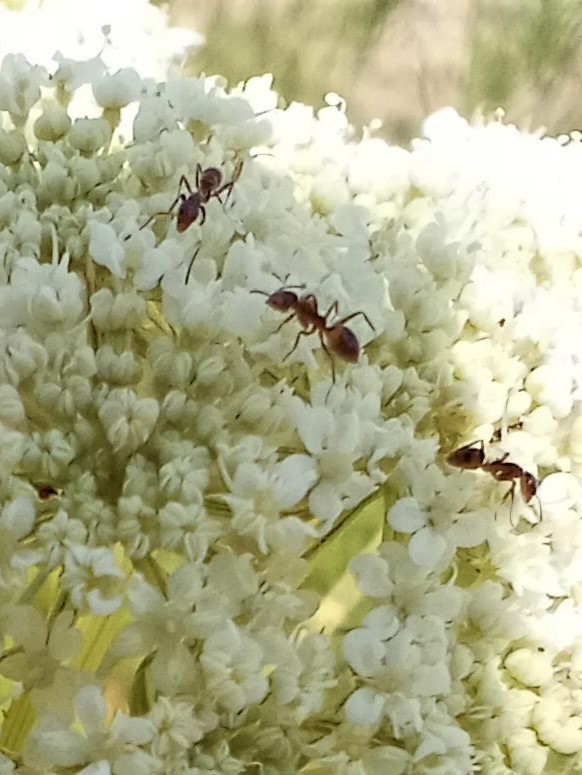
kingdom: Animalia
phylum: Arthropoda
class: Insecta
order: Hymenoptera
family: Formicidae
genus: Linepithema
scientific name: Linepithema humile
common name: Argentine ant
